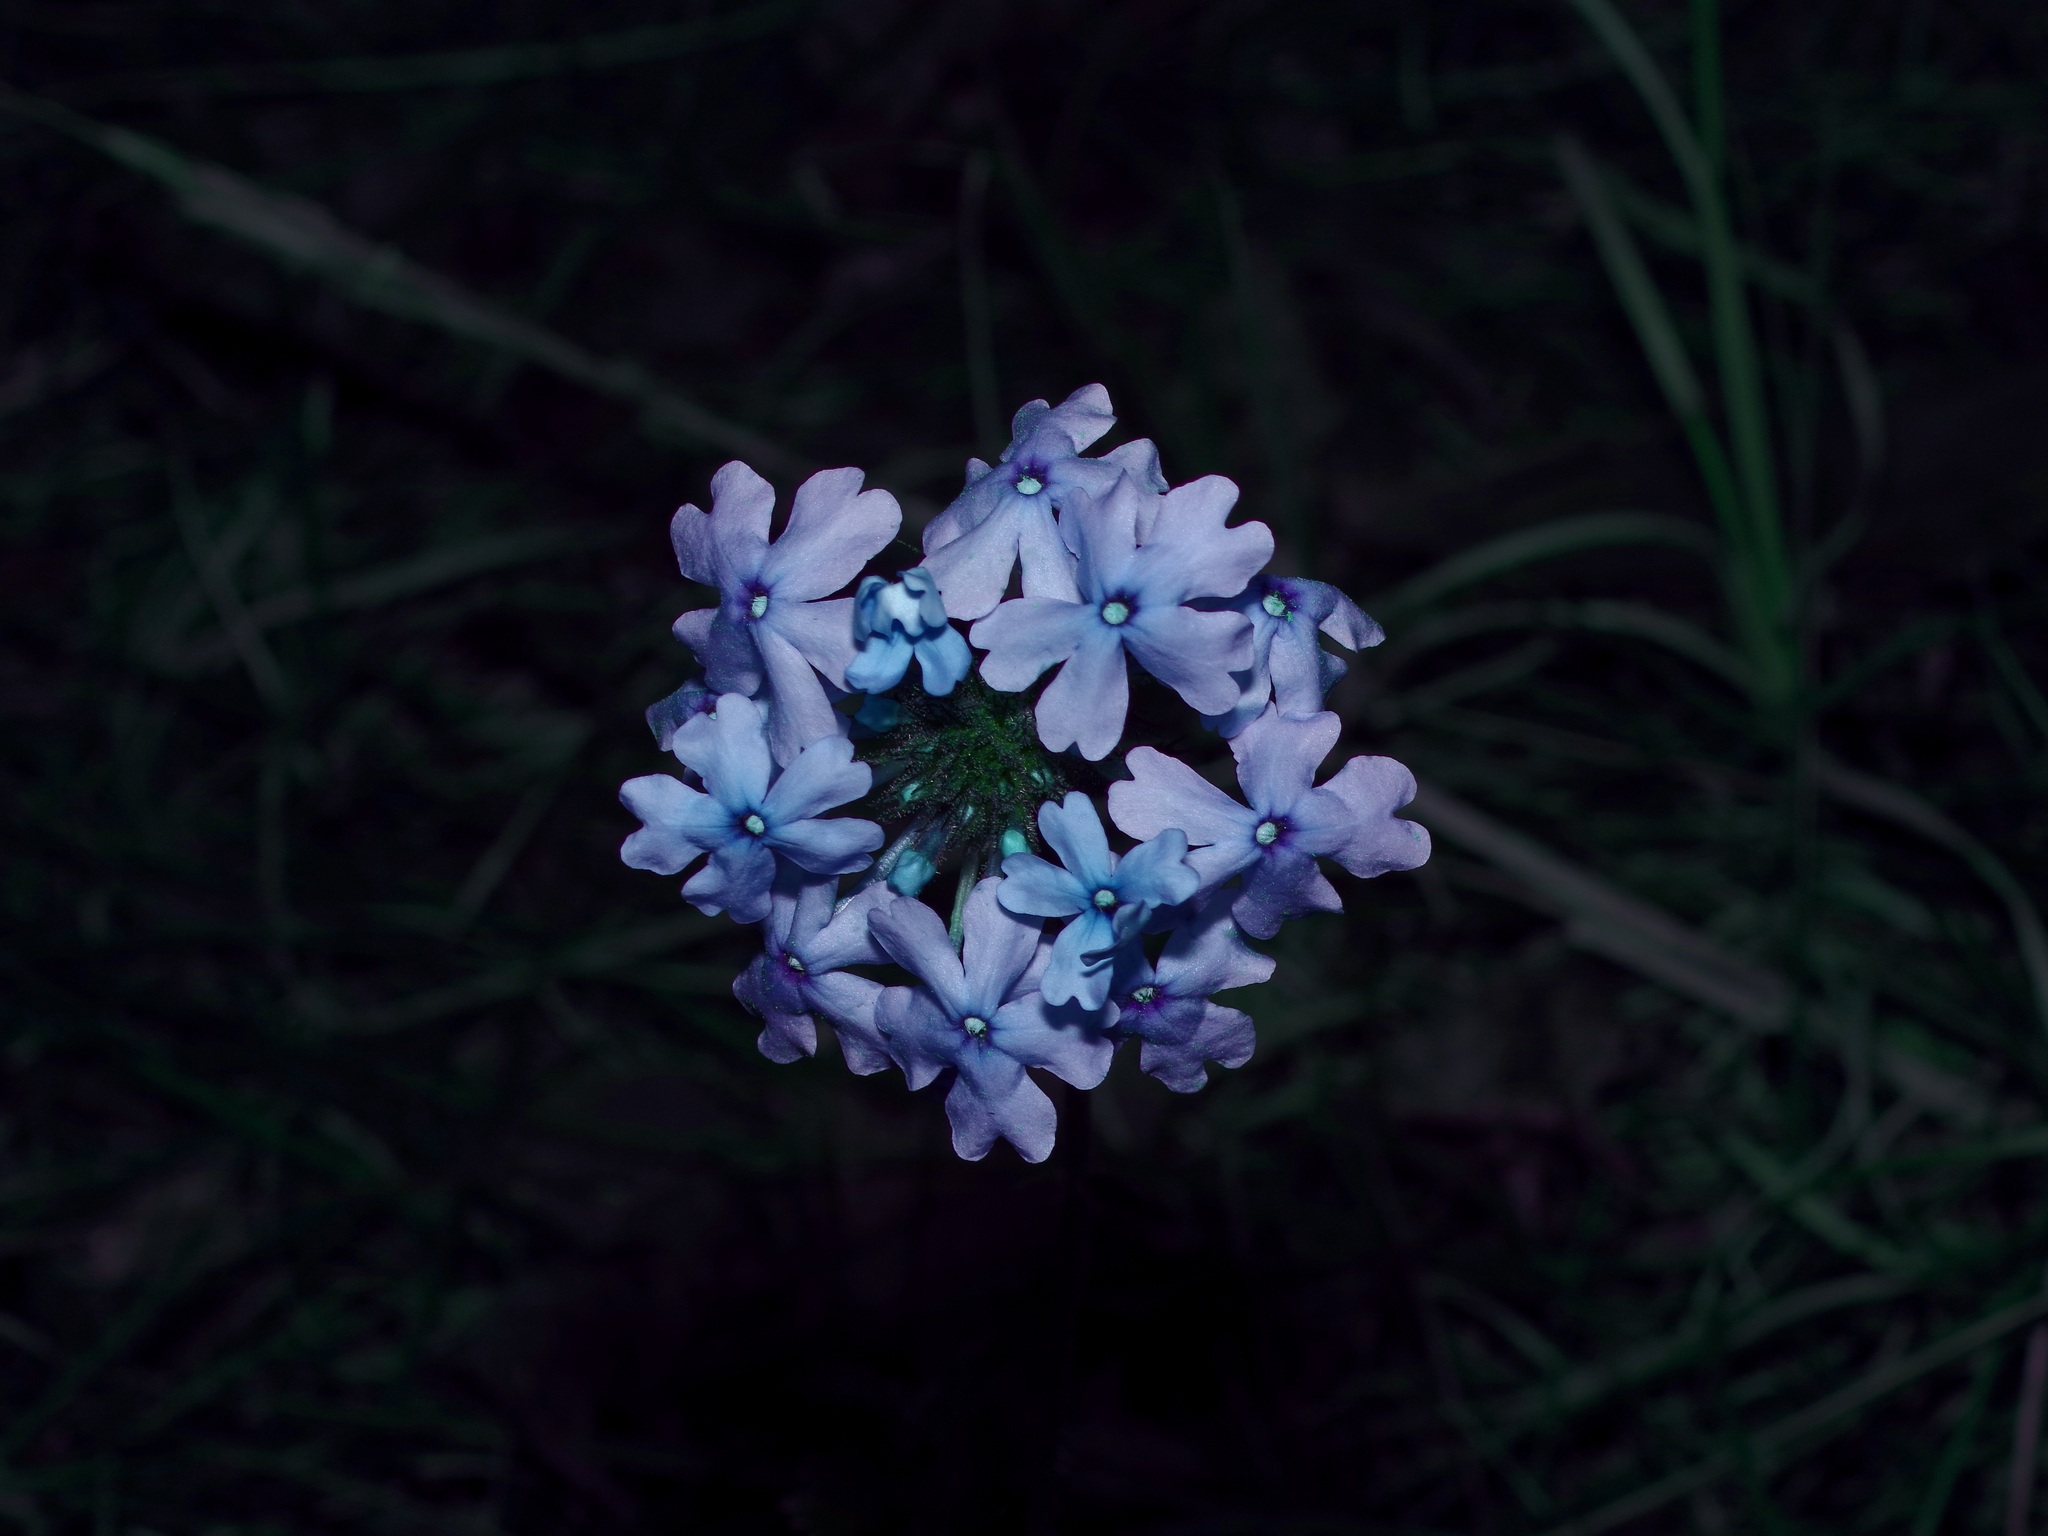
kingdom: Plantae
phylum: Tracheophyta
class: Magnoliopsida
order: Lamiales
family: Verbenaceae
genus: Verbena
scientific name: Verbena canadensis
